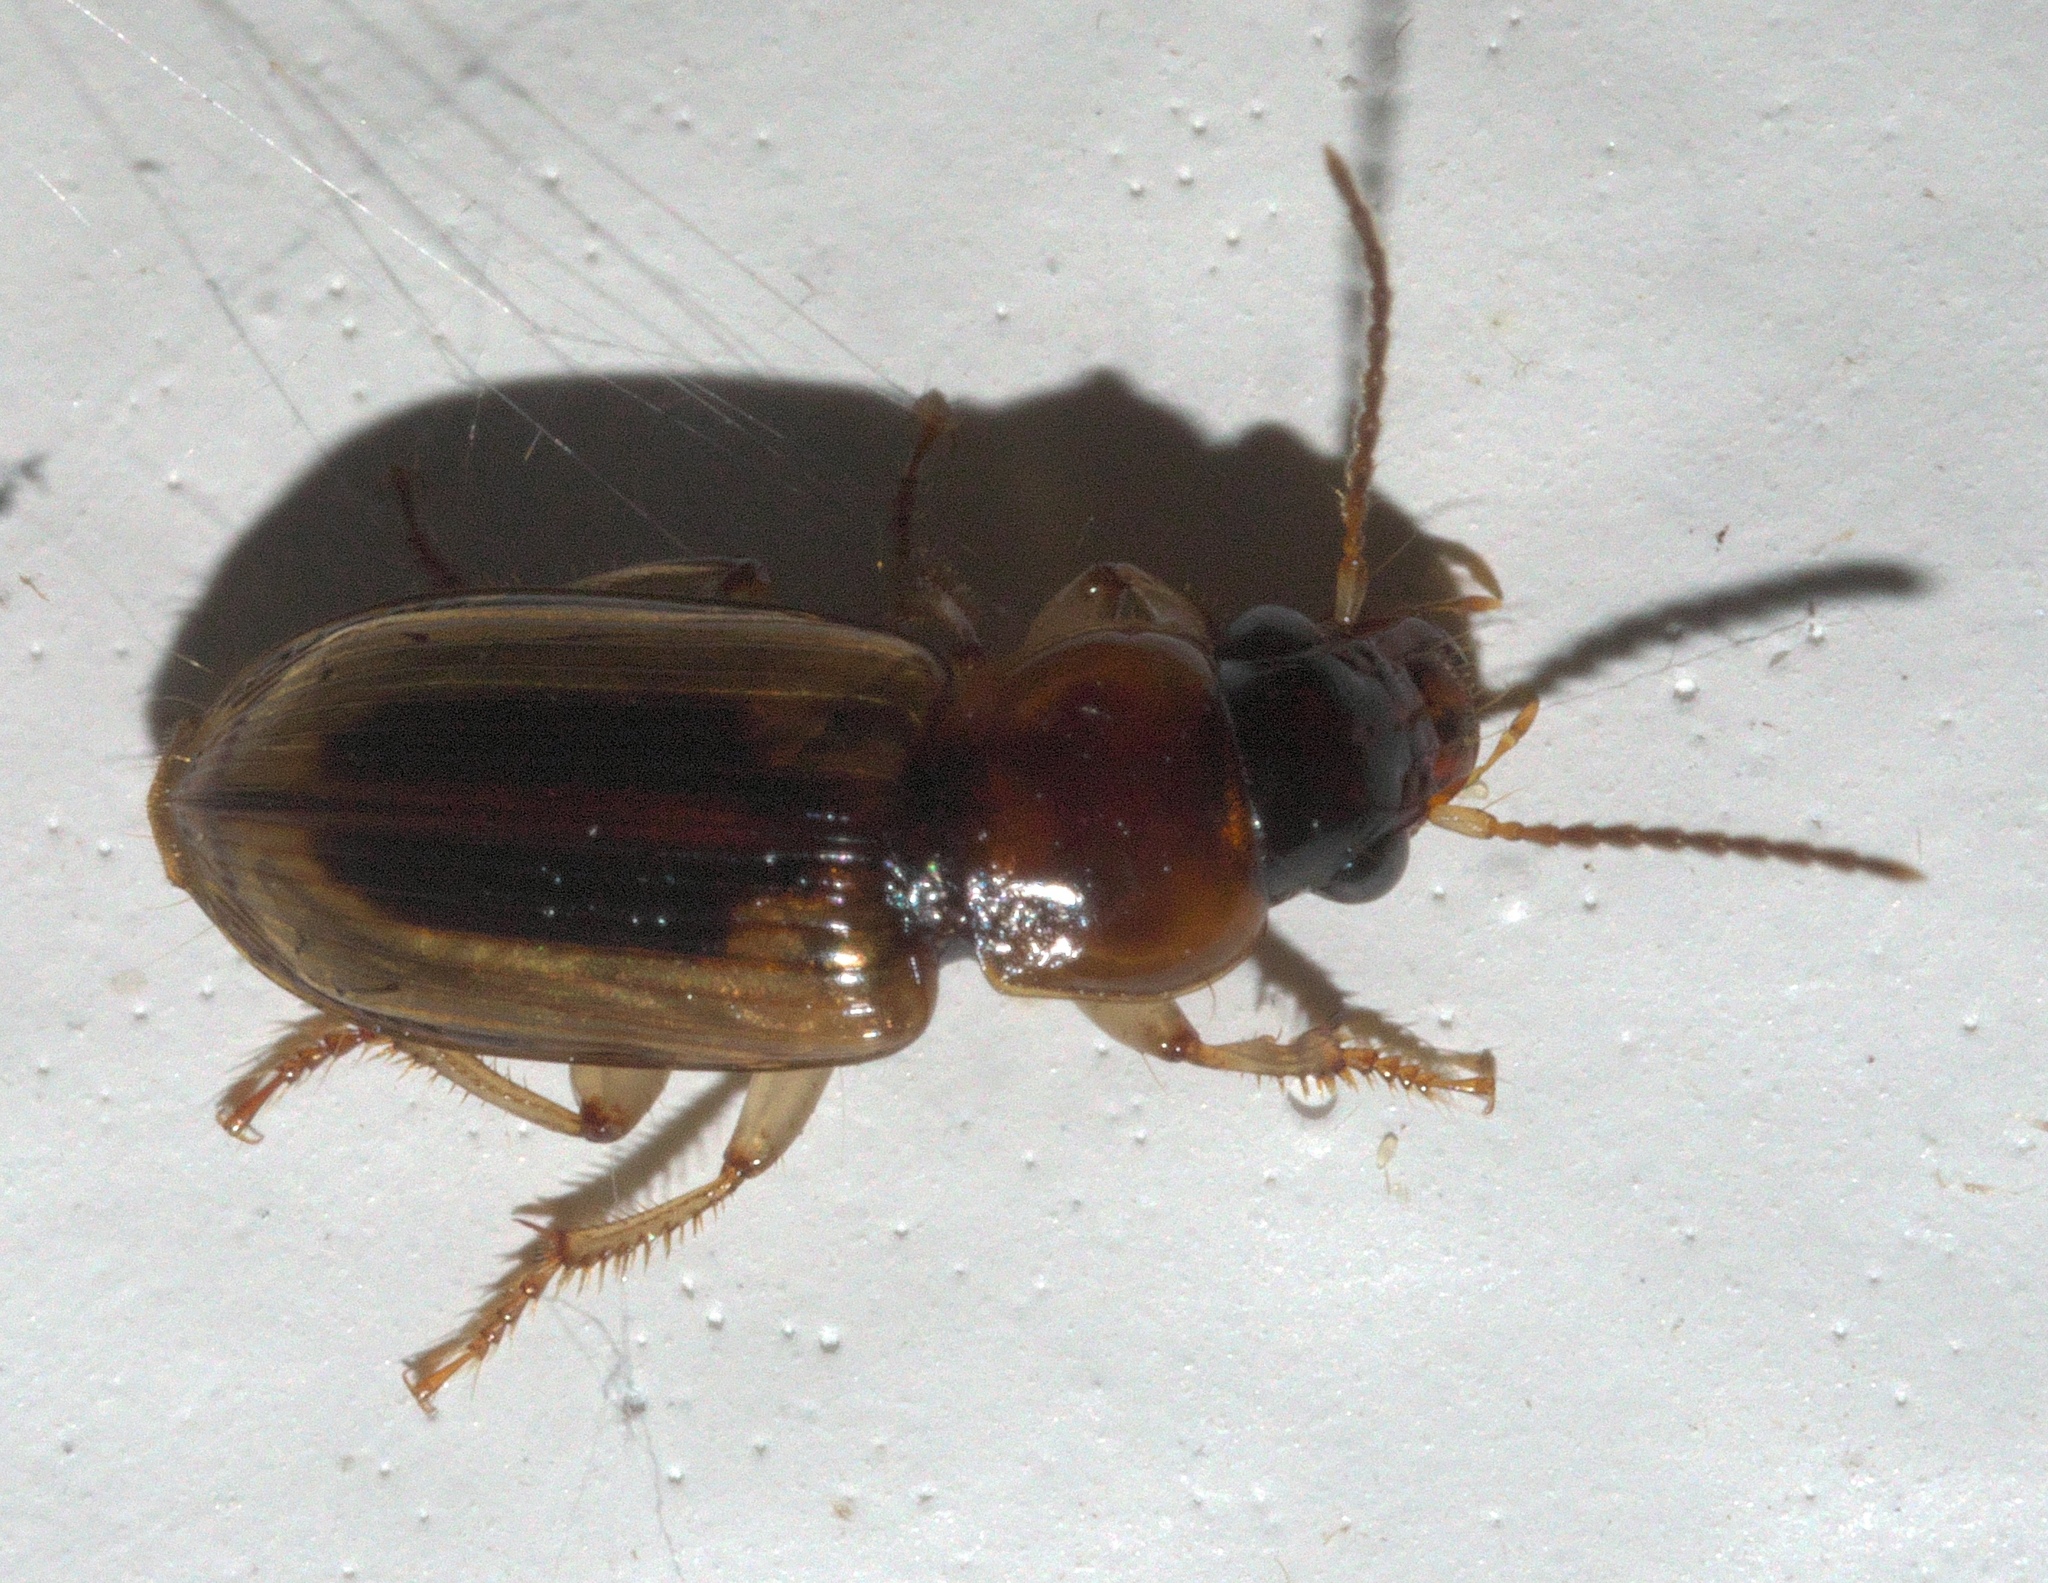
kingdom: Animalia
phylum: Arthropoda
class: Insecta
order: Coleoptera
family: Carabidae
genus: Stenolophus
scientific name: Stenolophus lecontei
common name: Leconte's seedcorn beetle
